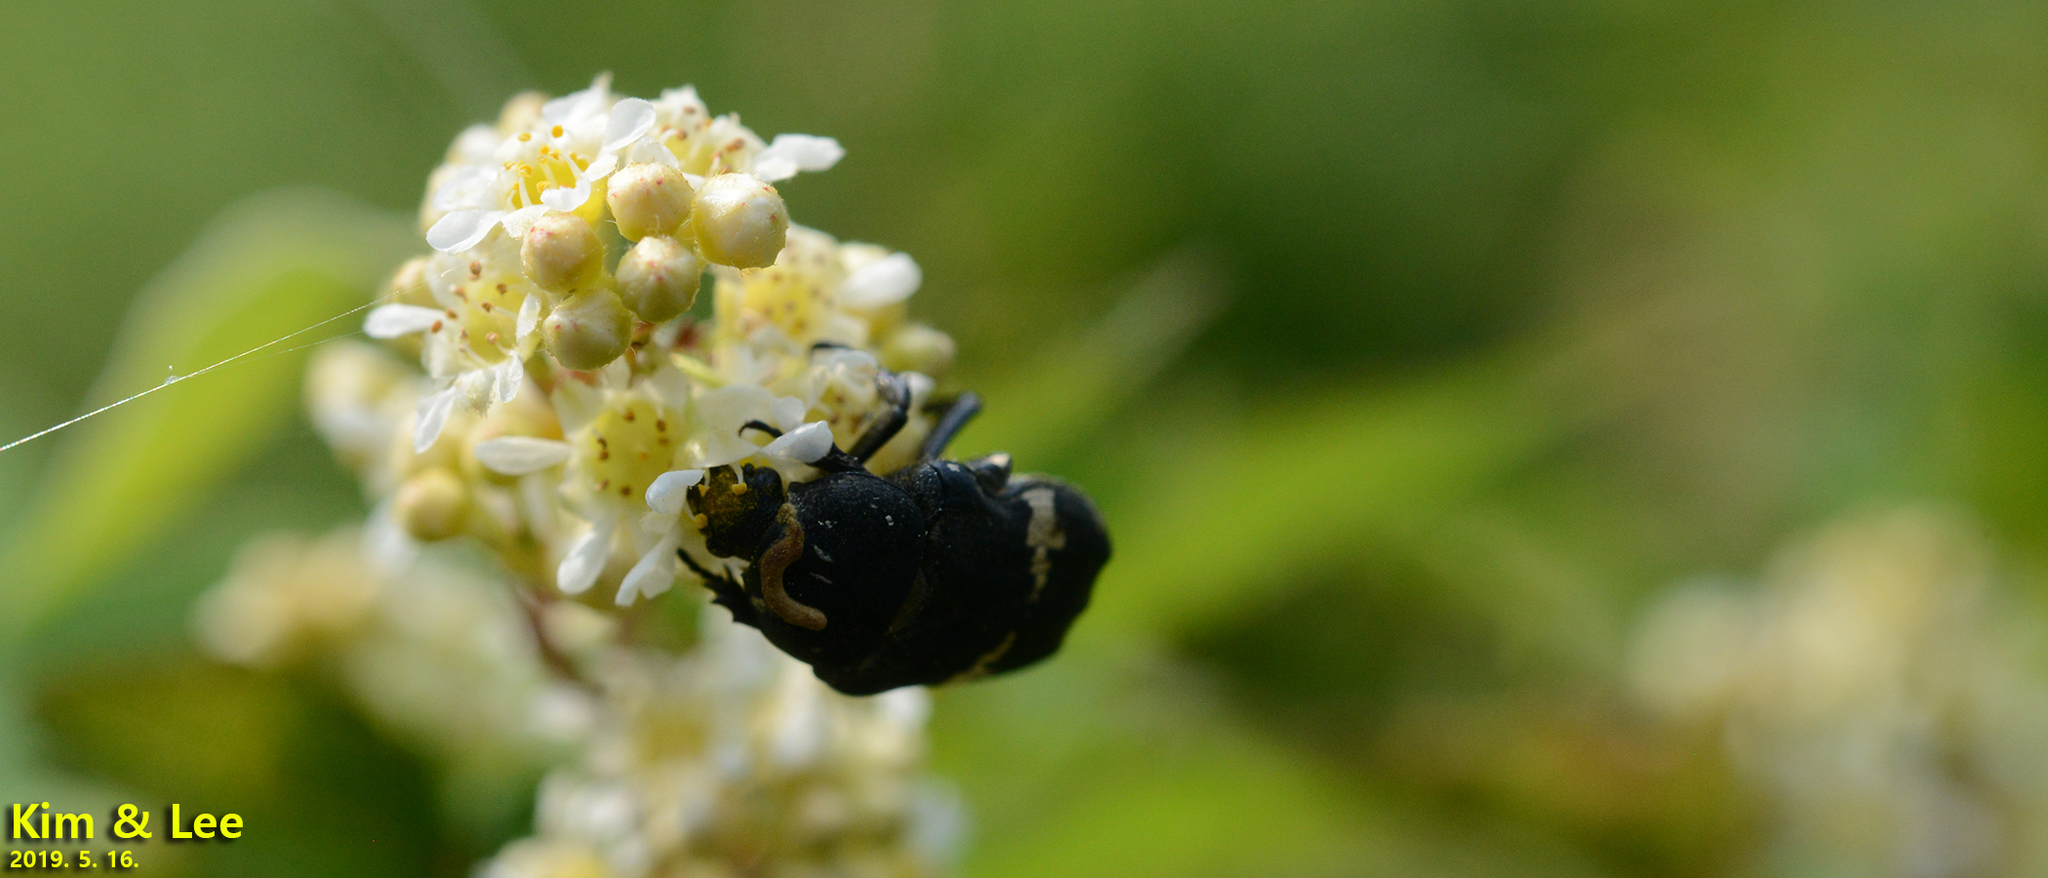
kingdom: Animalia
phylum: Arthropoda
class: Insecta
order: Coleoptera
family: Scarabaeidae
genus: Glycyphana
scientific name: Glycyphana fulvistemma
